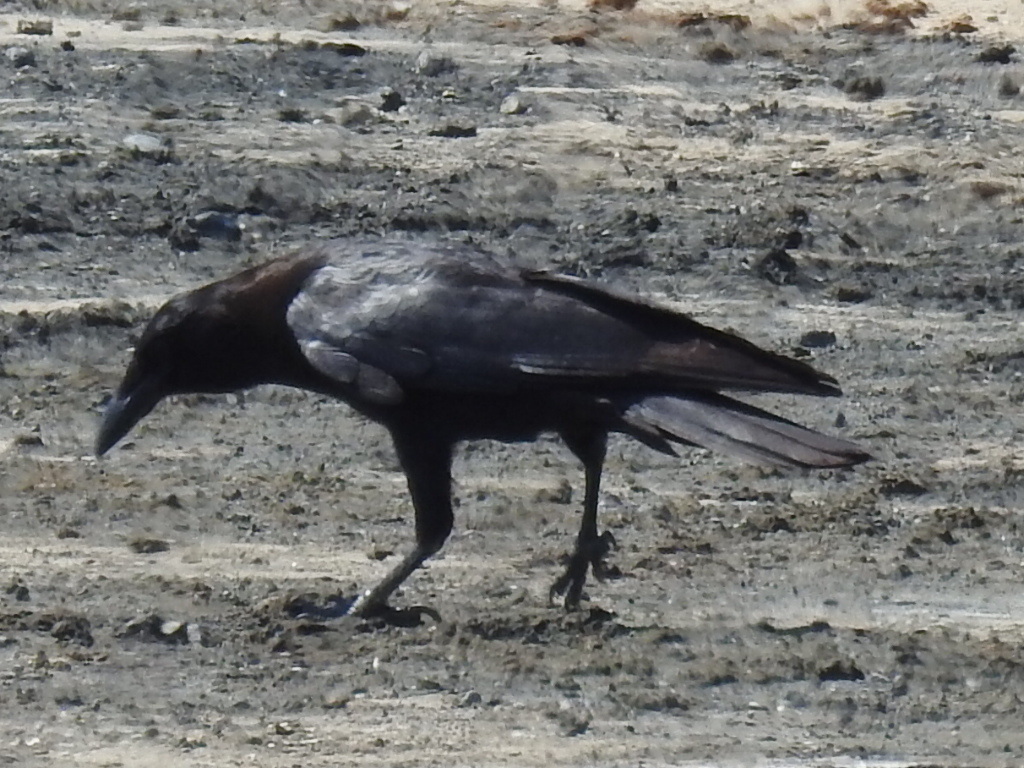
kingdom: Animalia
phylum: Chordata
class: Aves
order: Passeriformes
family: Corvidae
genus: Corvus
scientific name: Corvus brachyrhynchos
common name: American crow
